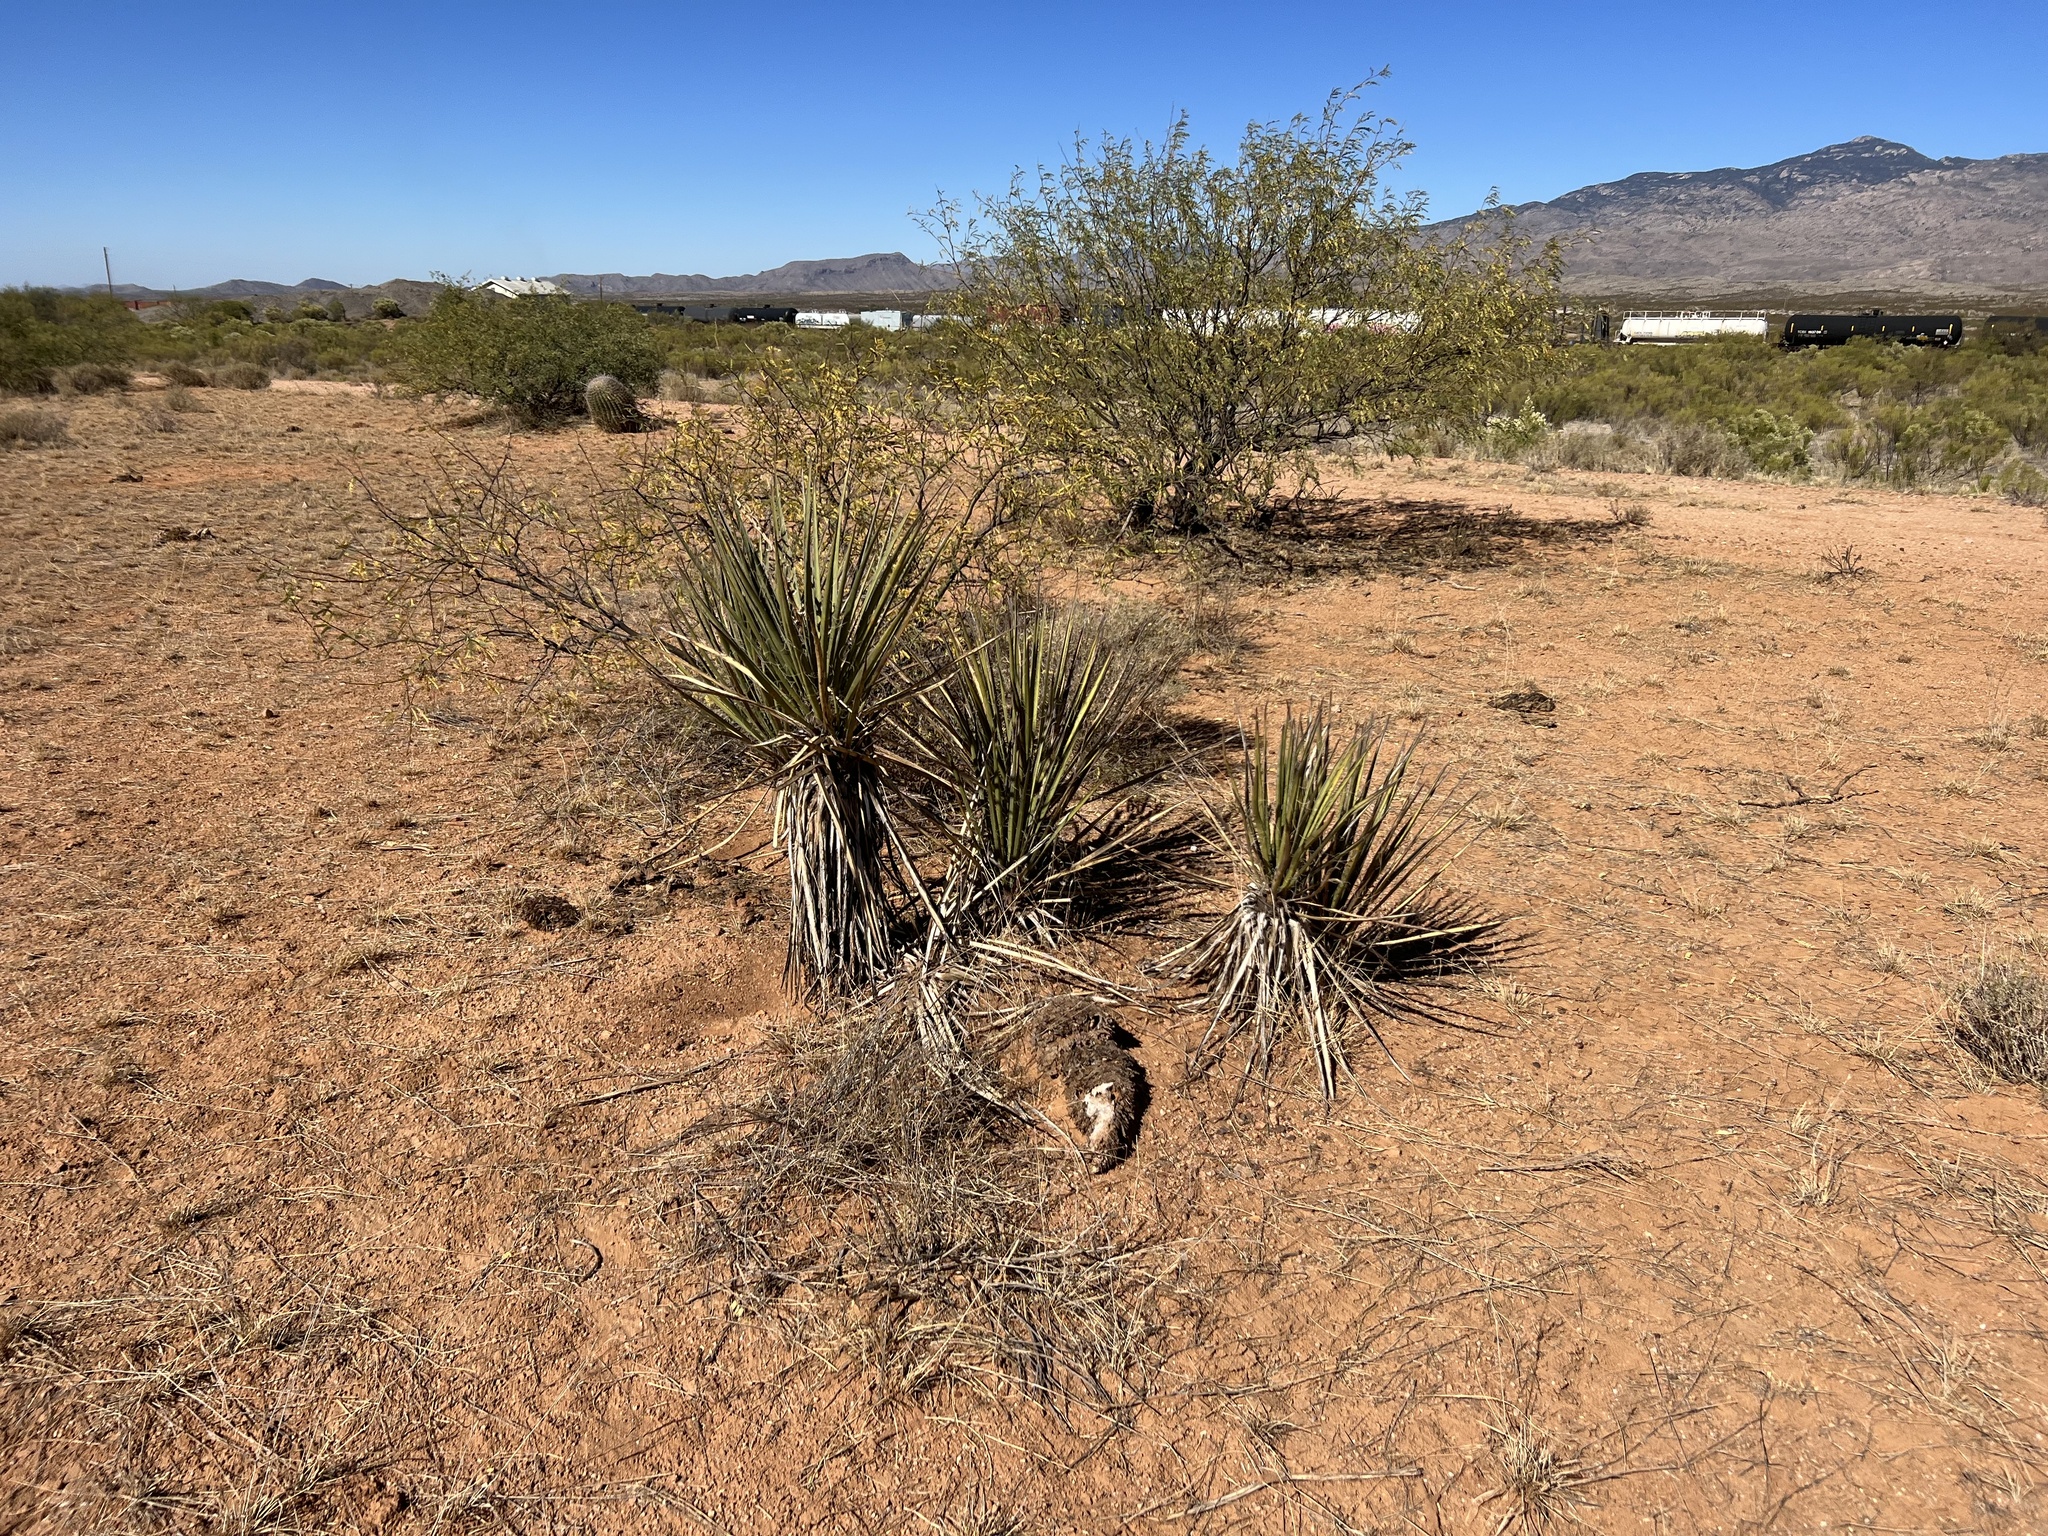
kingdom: Plantae
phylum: Tracheophyta
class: Liliopsida
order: Asparagales
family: Asparagaceae
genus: Yucca
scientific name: Yucca baccata
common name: Banana yucca
